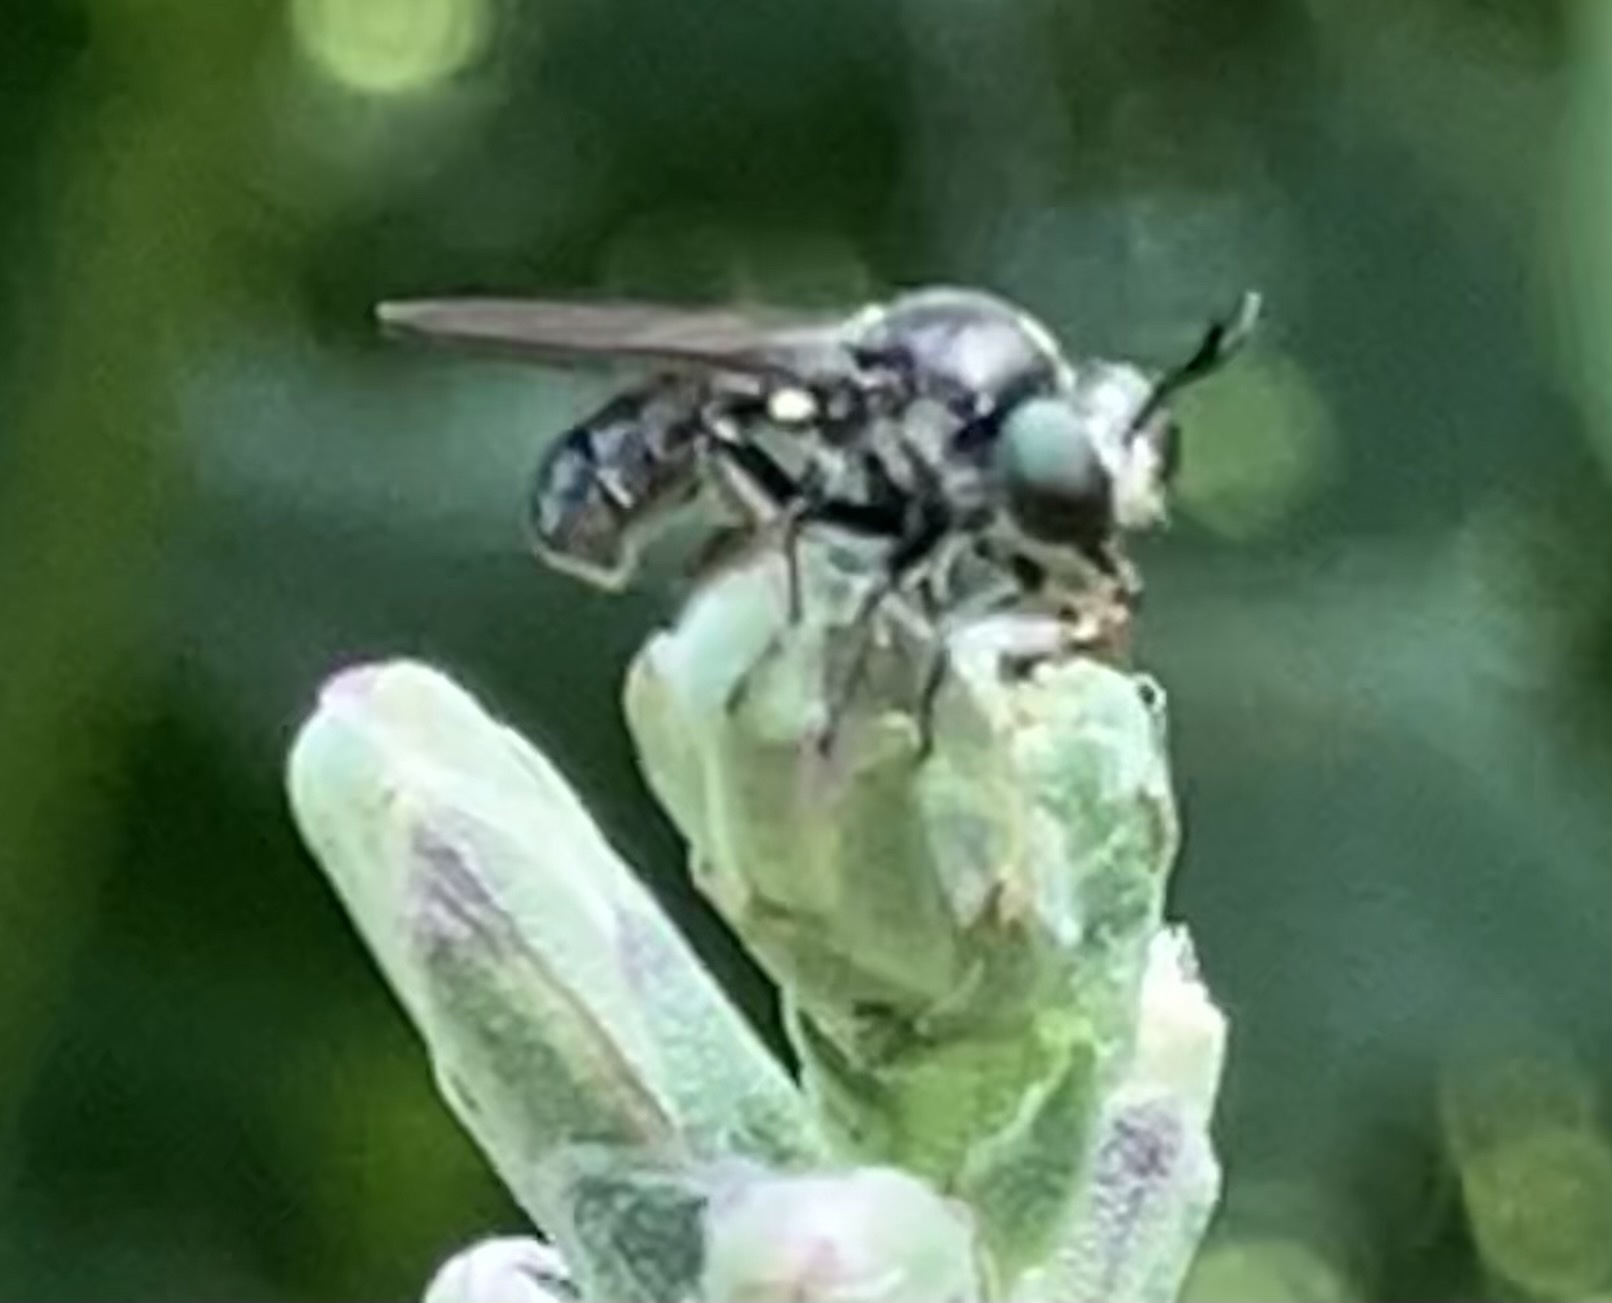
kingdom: Animalia
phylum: Arthropoda
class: Insecta
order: Diptera
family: Asilidae
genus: Cerotainia
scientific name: Cerotainia
